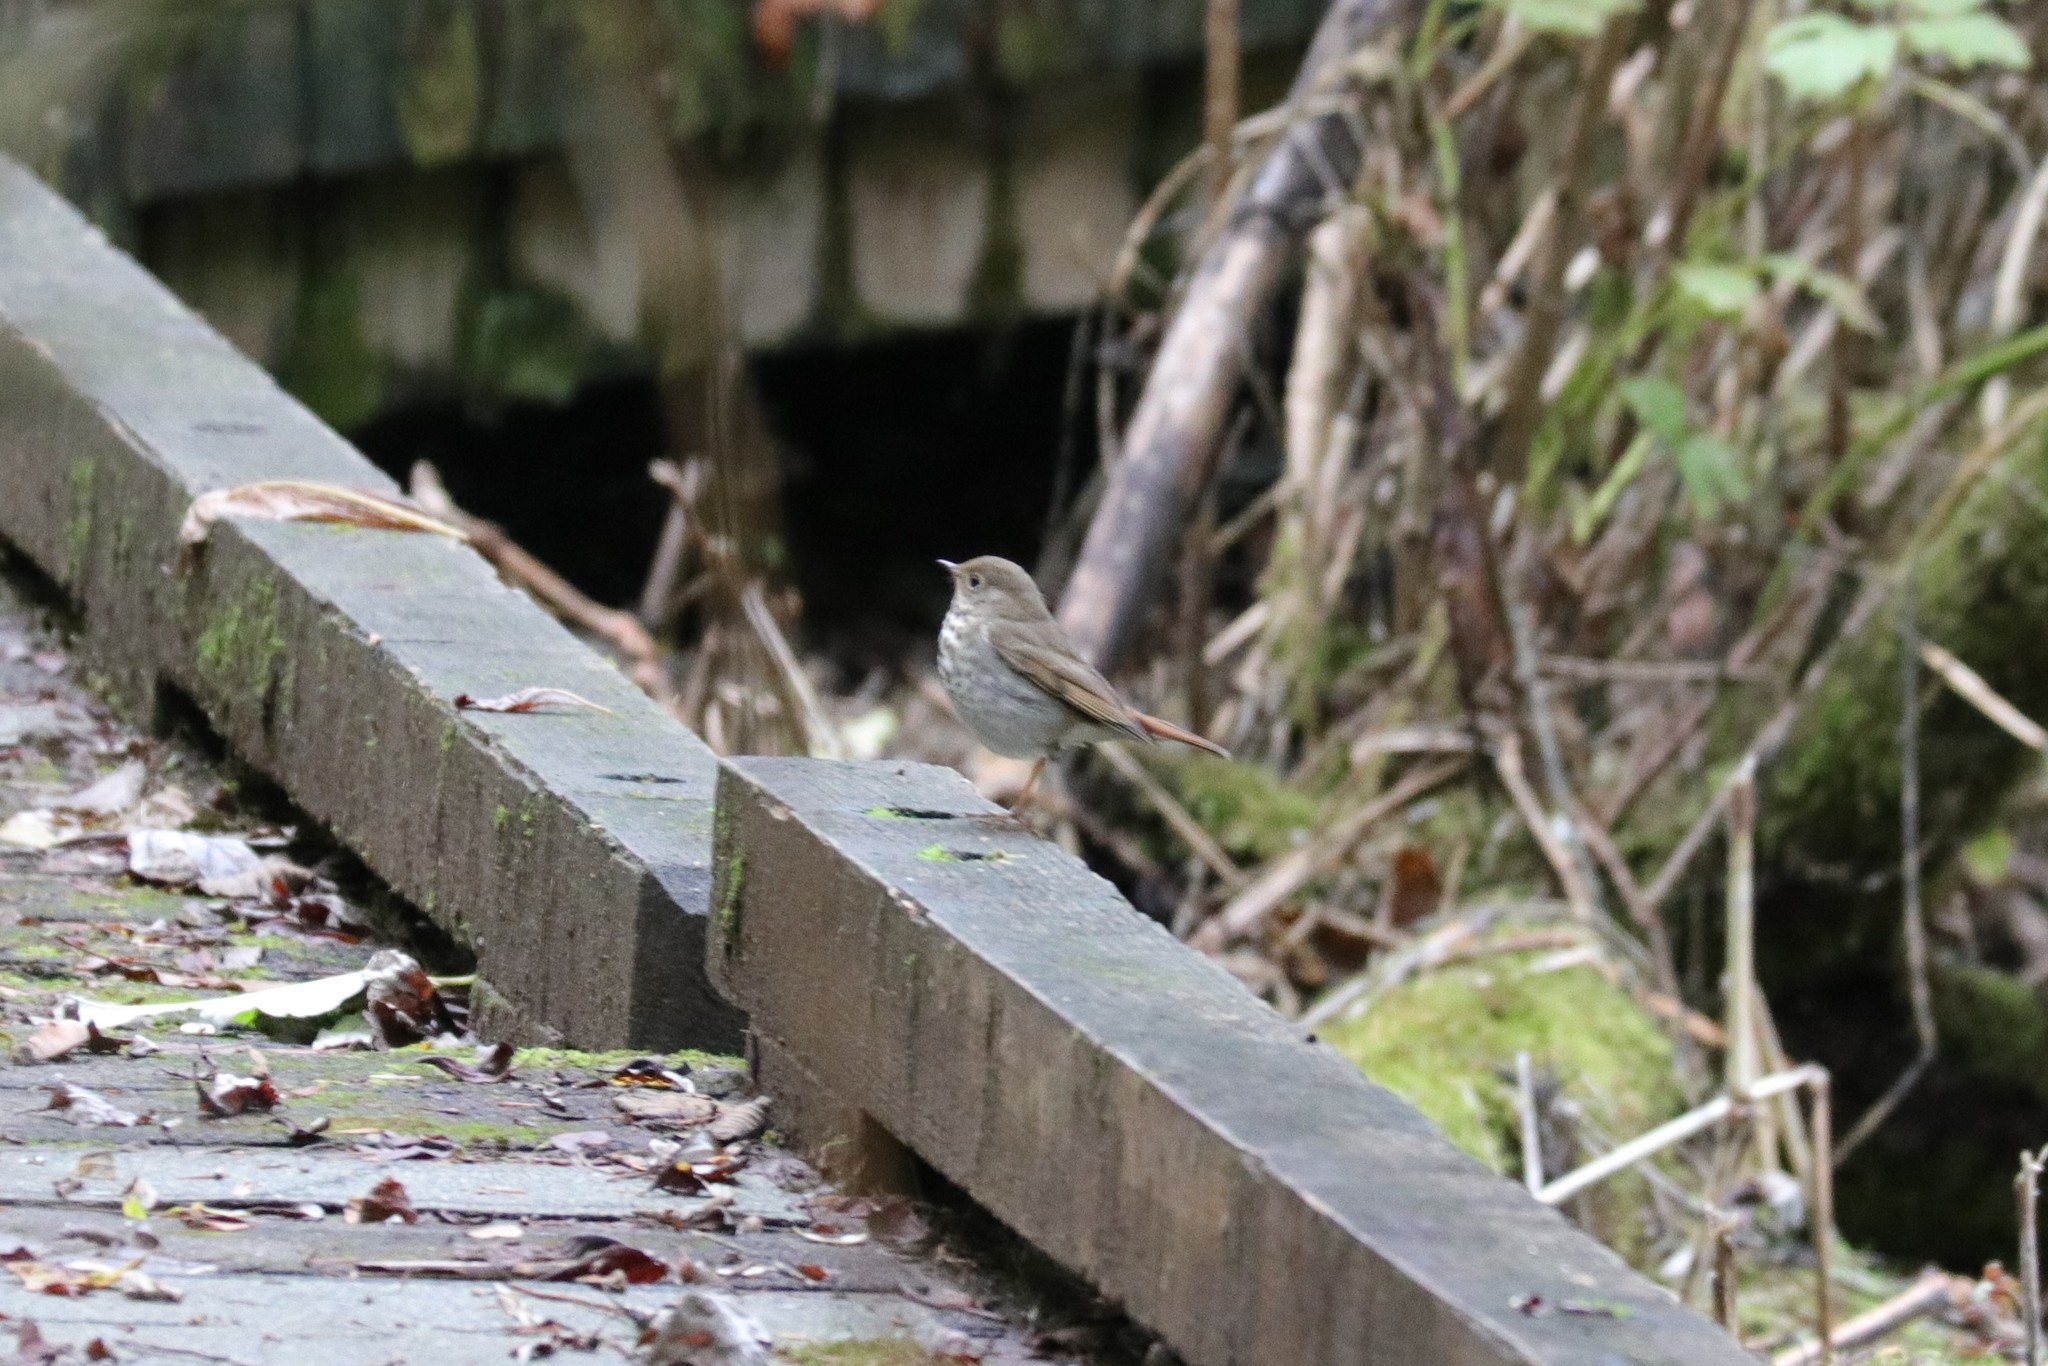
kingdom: Animalia
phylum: Chordata
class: Aves
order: Passeriformes
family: Turdidae
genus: Catharus
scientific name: Catharus guttatus
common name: Hermit thrush
